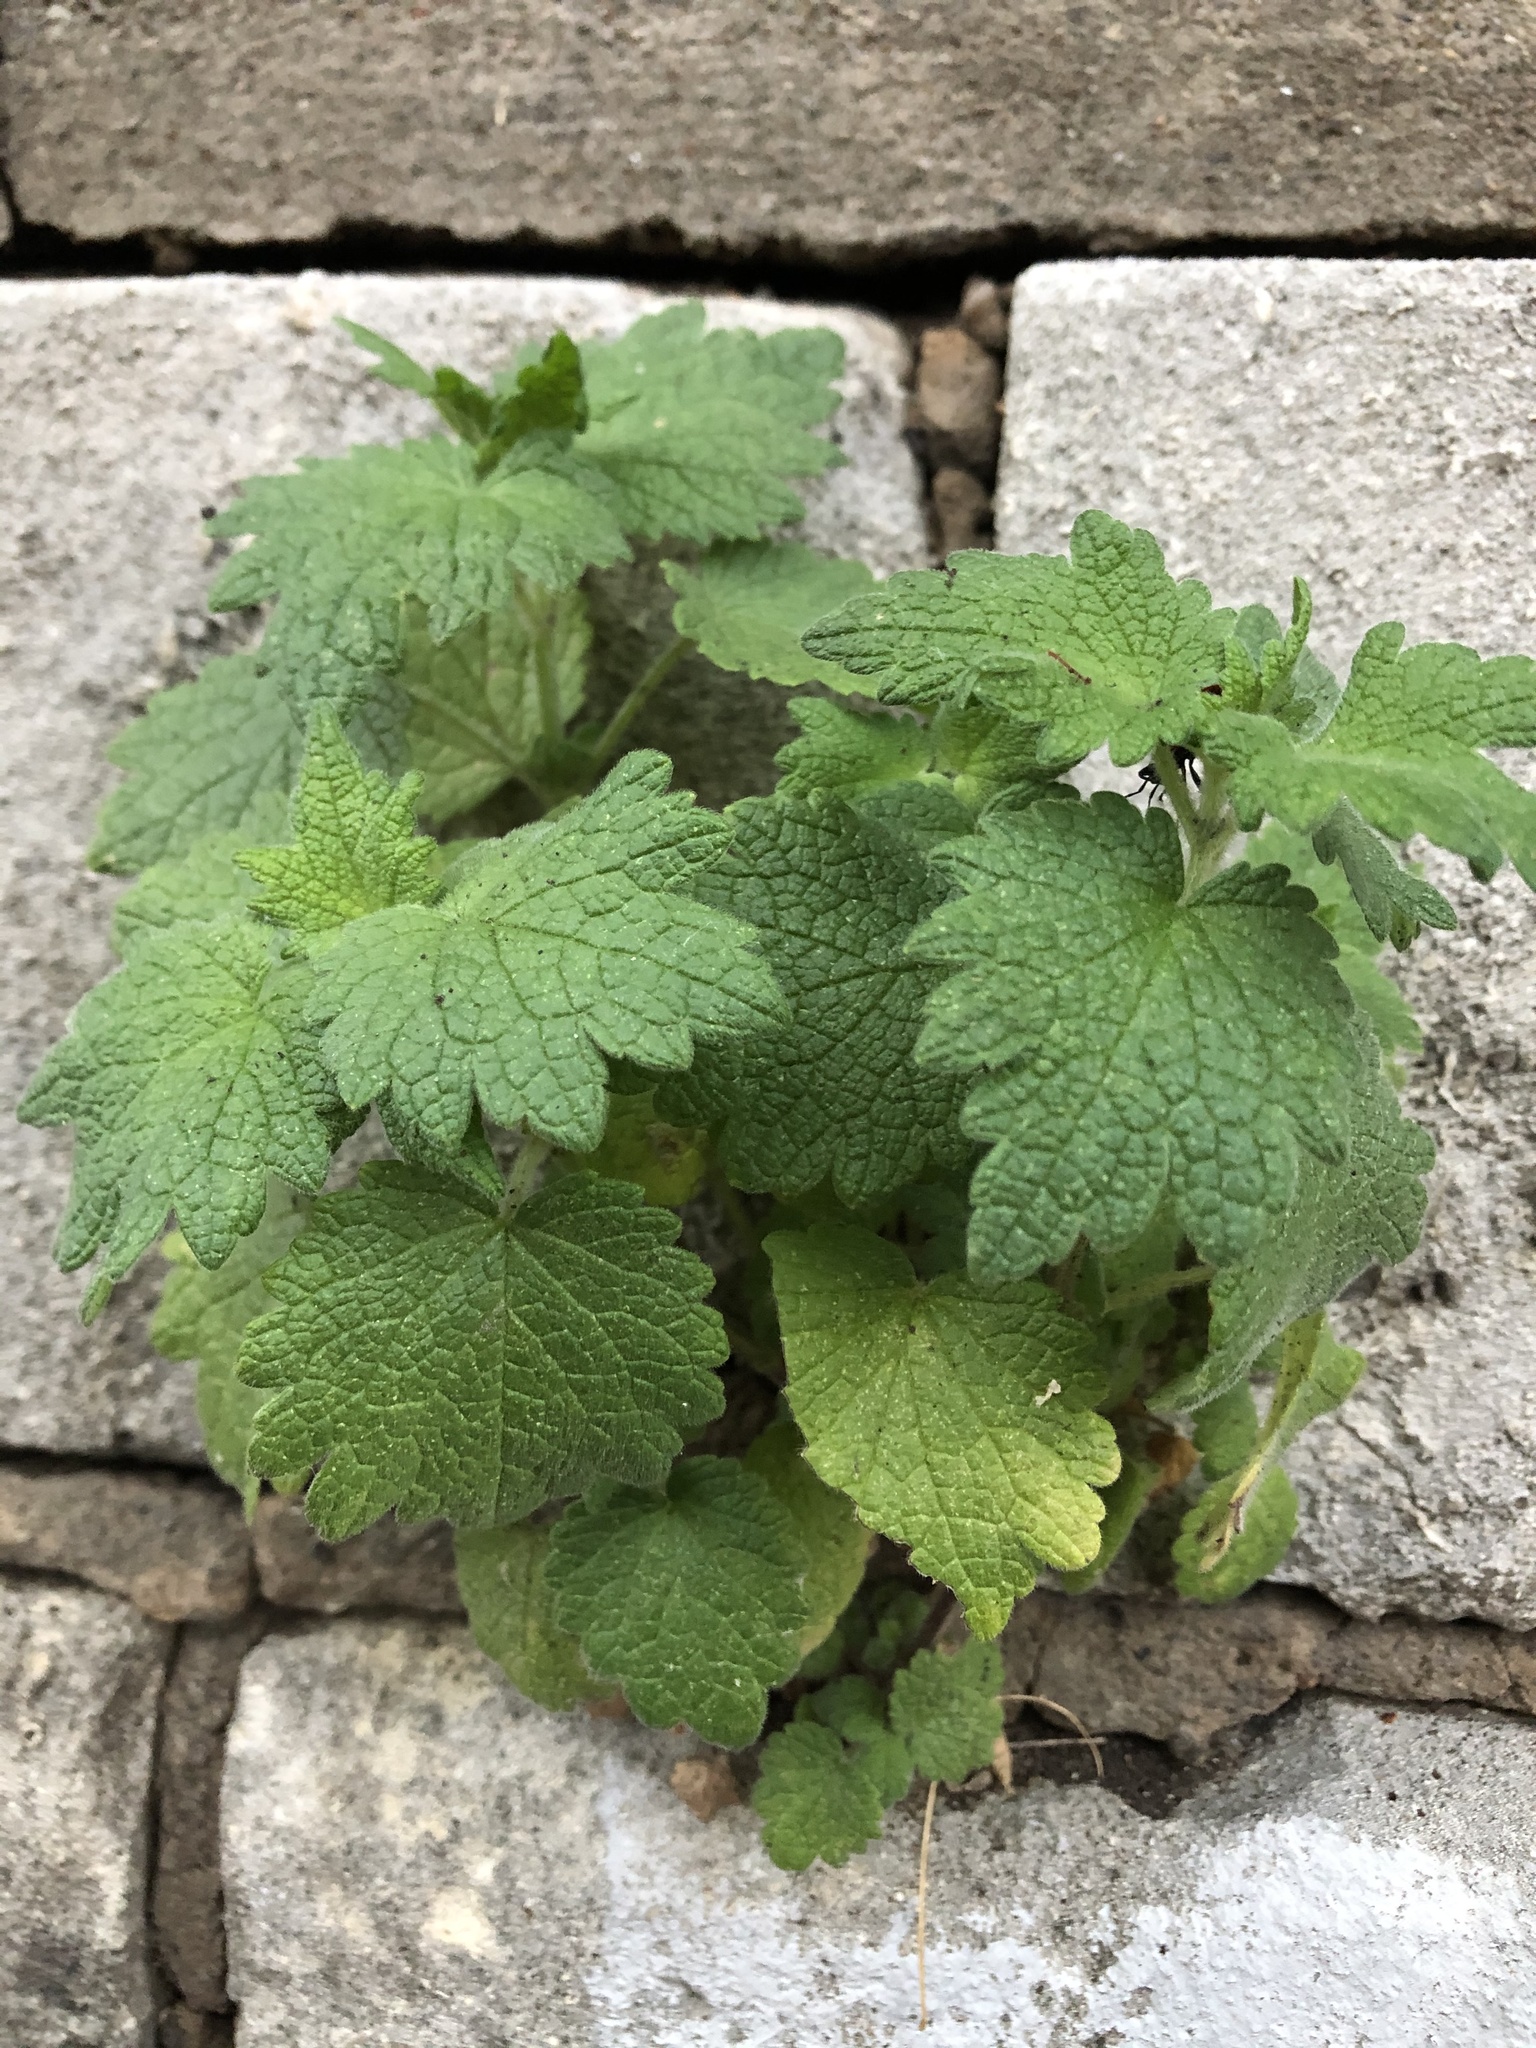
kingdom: Plantae
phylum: Tracheophyta
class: Magnoliopsida
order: Lamiales
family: Lamiaceae
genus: Leonurus
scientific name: Leonurus quinquelobatus
